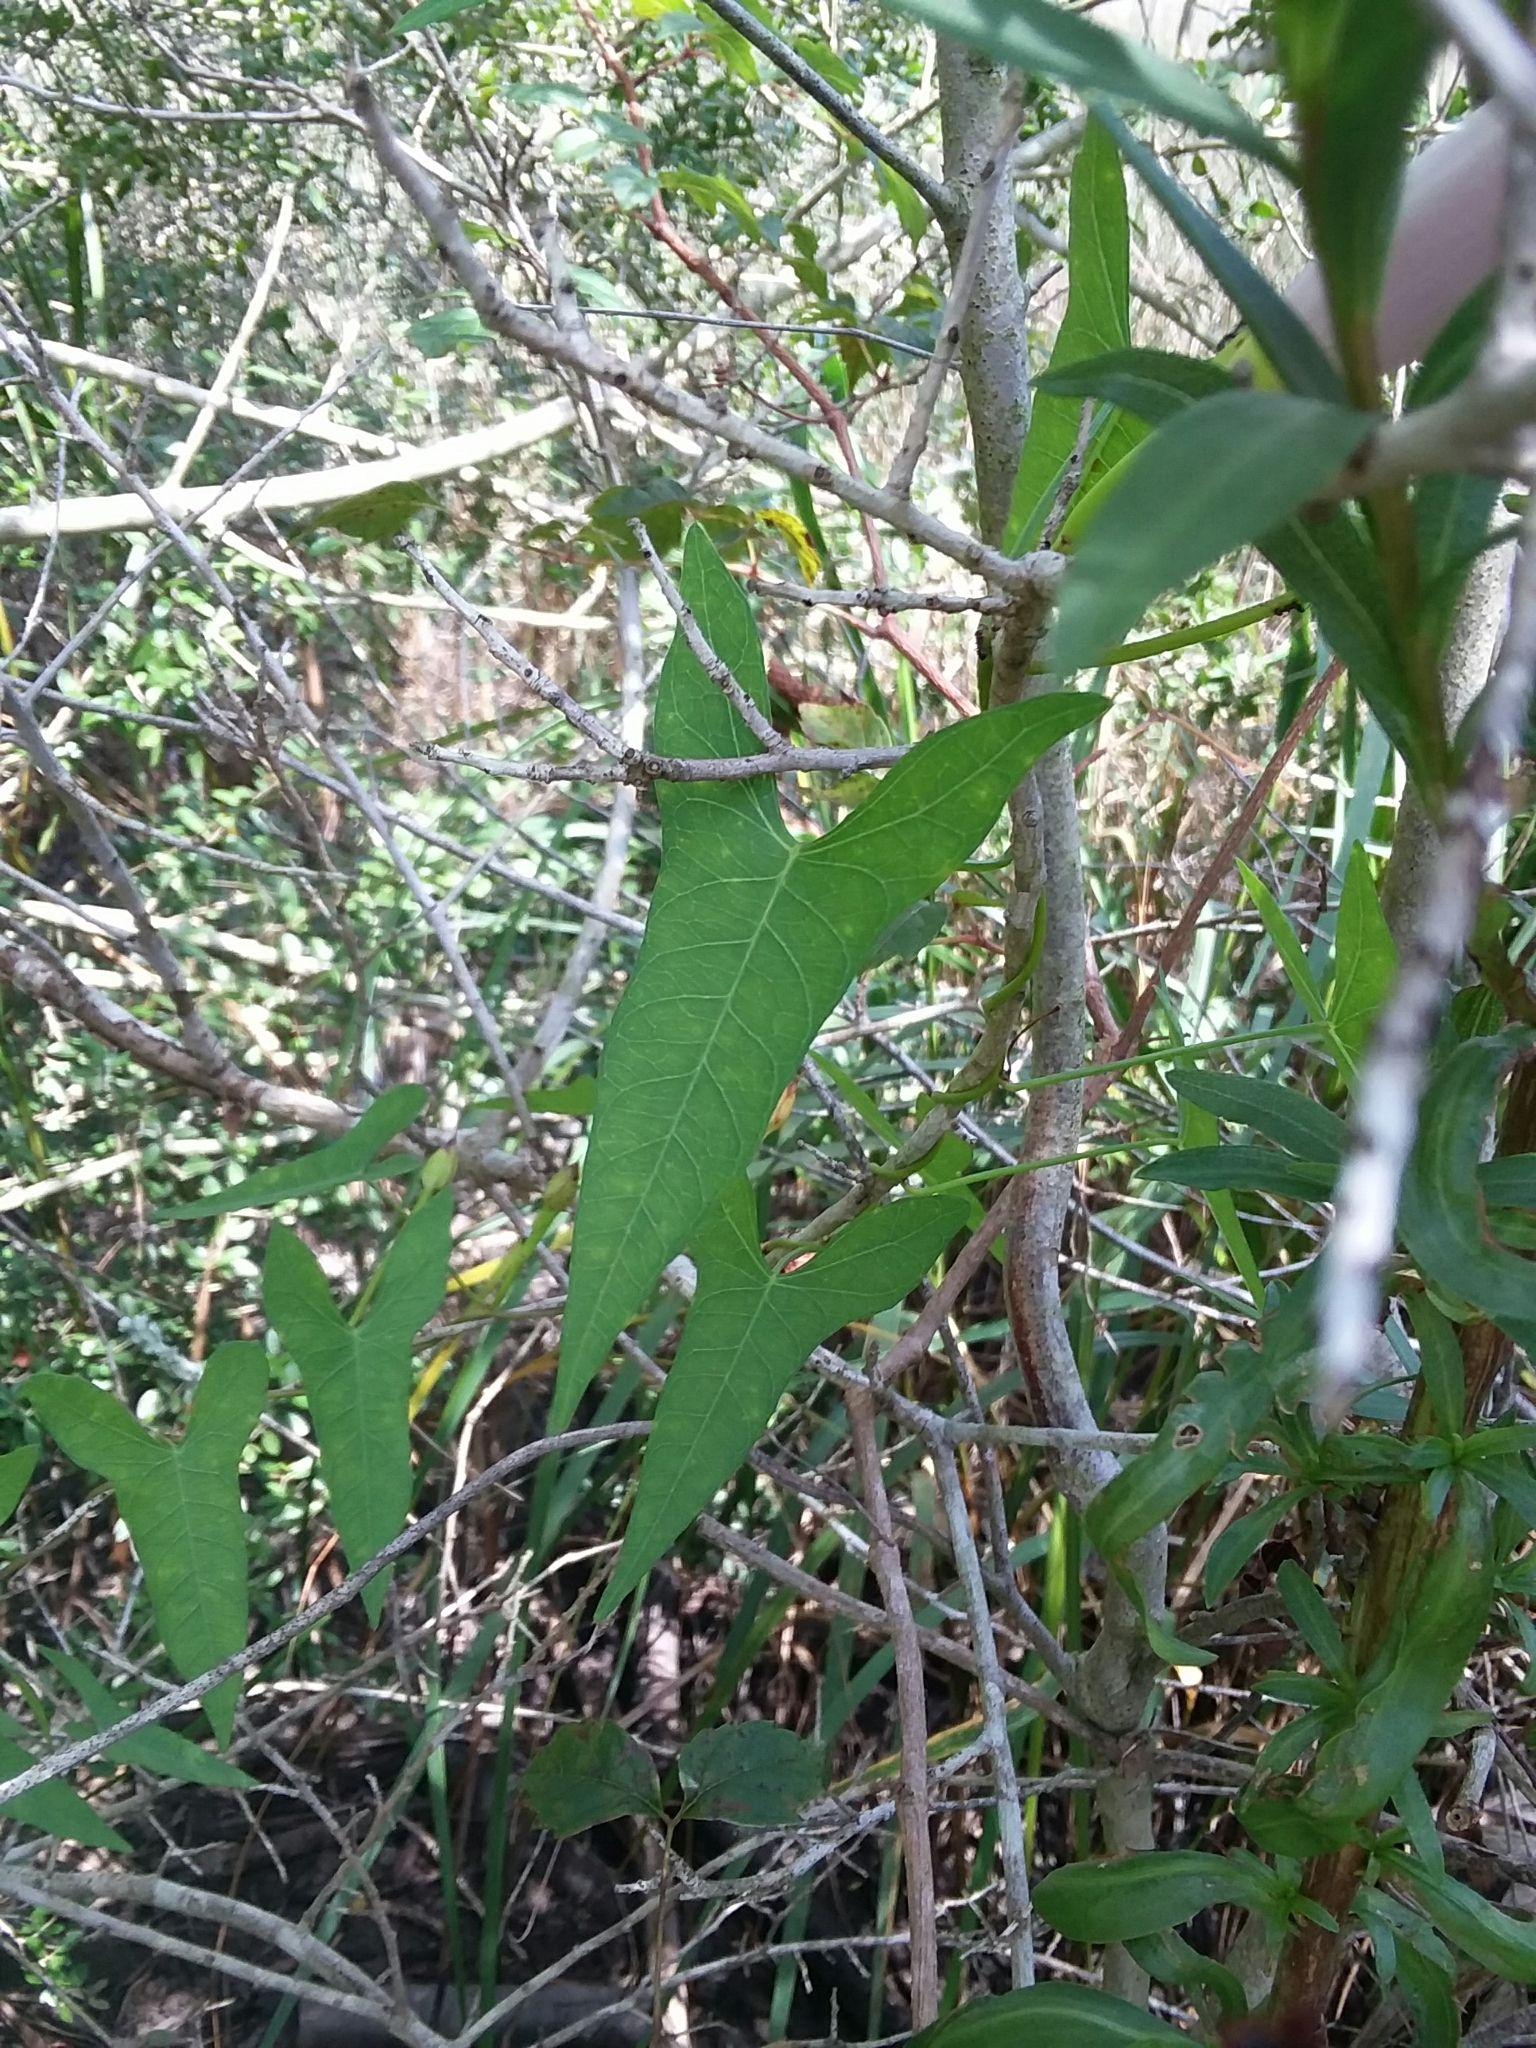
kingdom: Plantae
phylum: Tracheophyta
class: Magnoliopsida
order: Solanales
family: Convolvulaceae
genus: Ipomoea
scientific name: Ipomoea sagittata
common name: Saltmarsh morning glory
